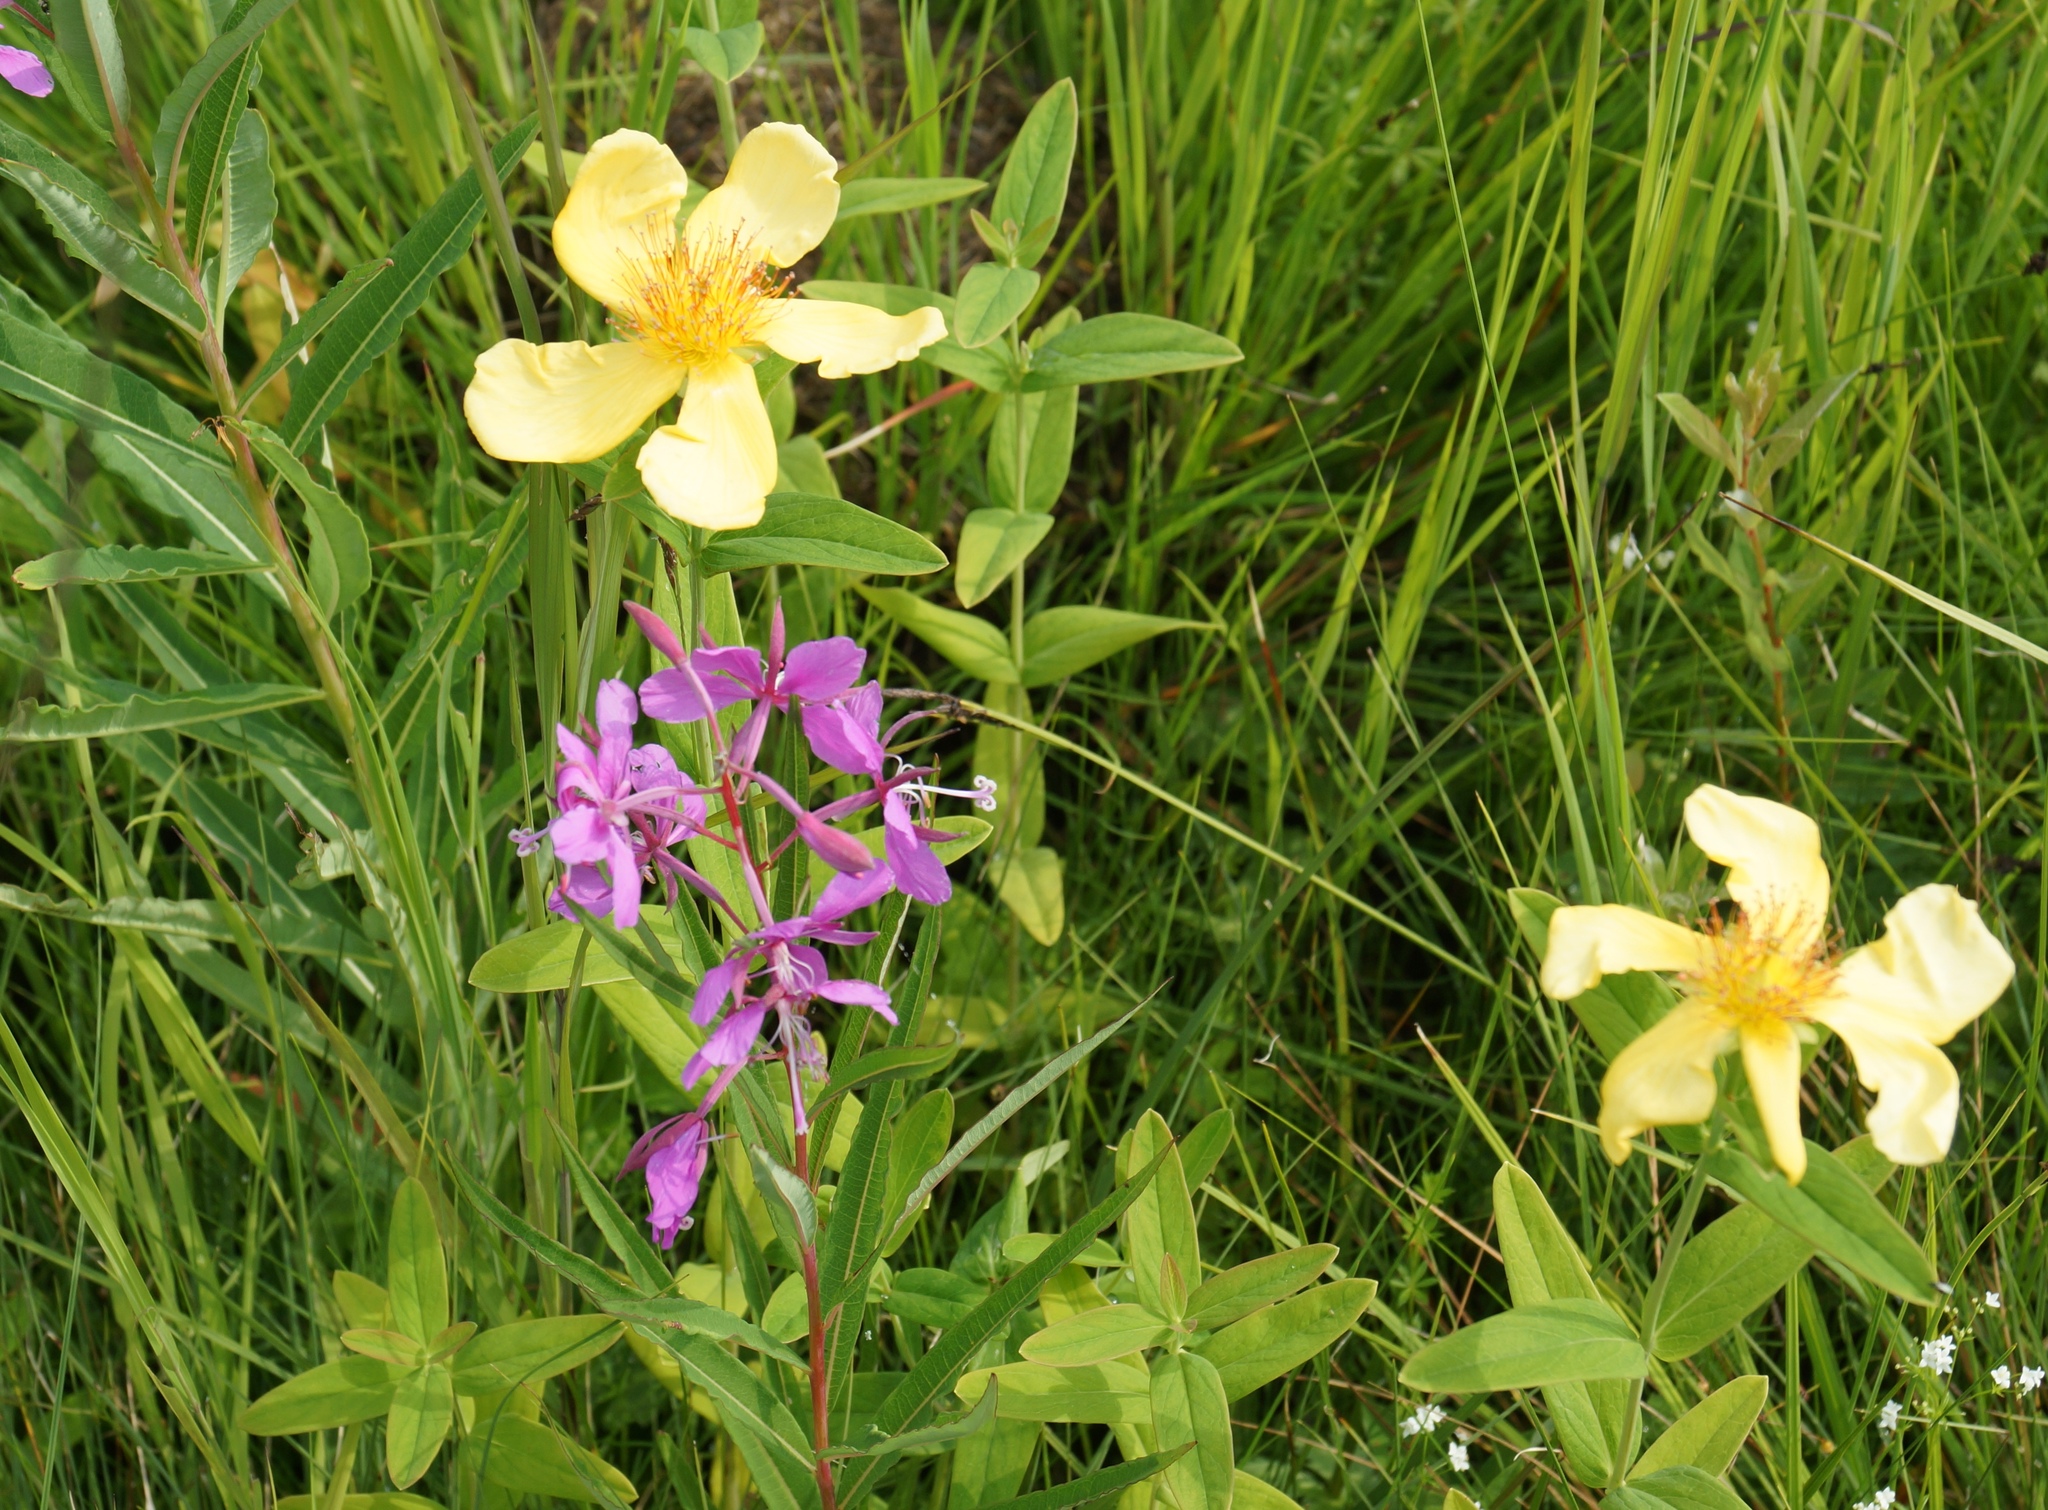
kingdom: Plantae
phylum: Tracheophyta
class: Magnoliopsida
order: Malpighiales
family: Hypericaceae
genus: Hypericum
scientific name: Hypericum ascyron
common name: Giant st. john's-wort
